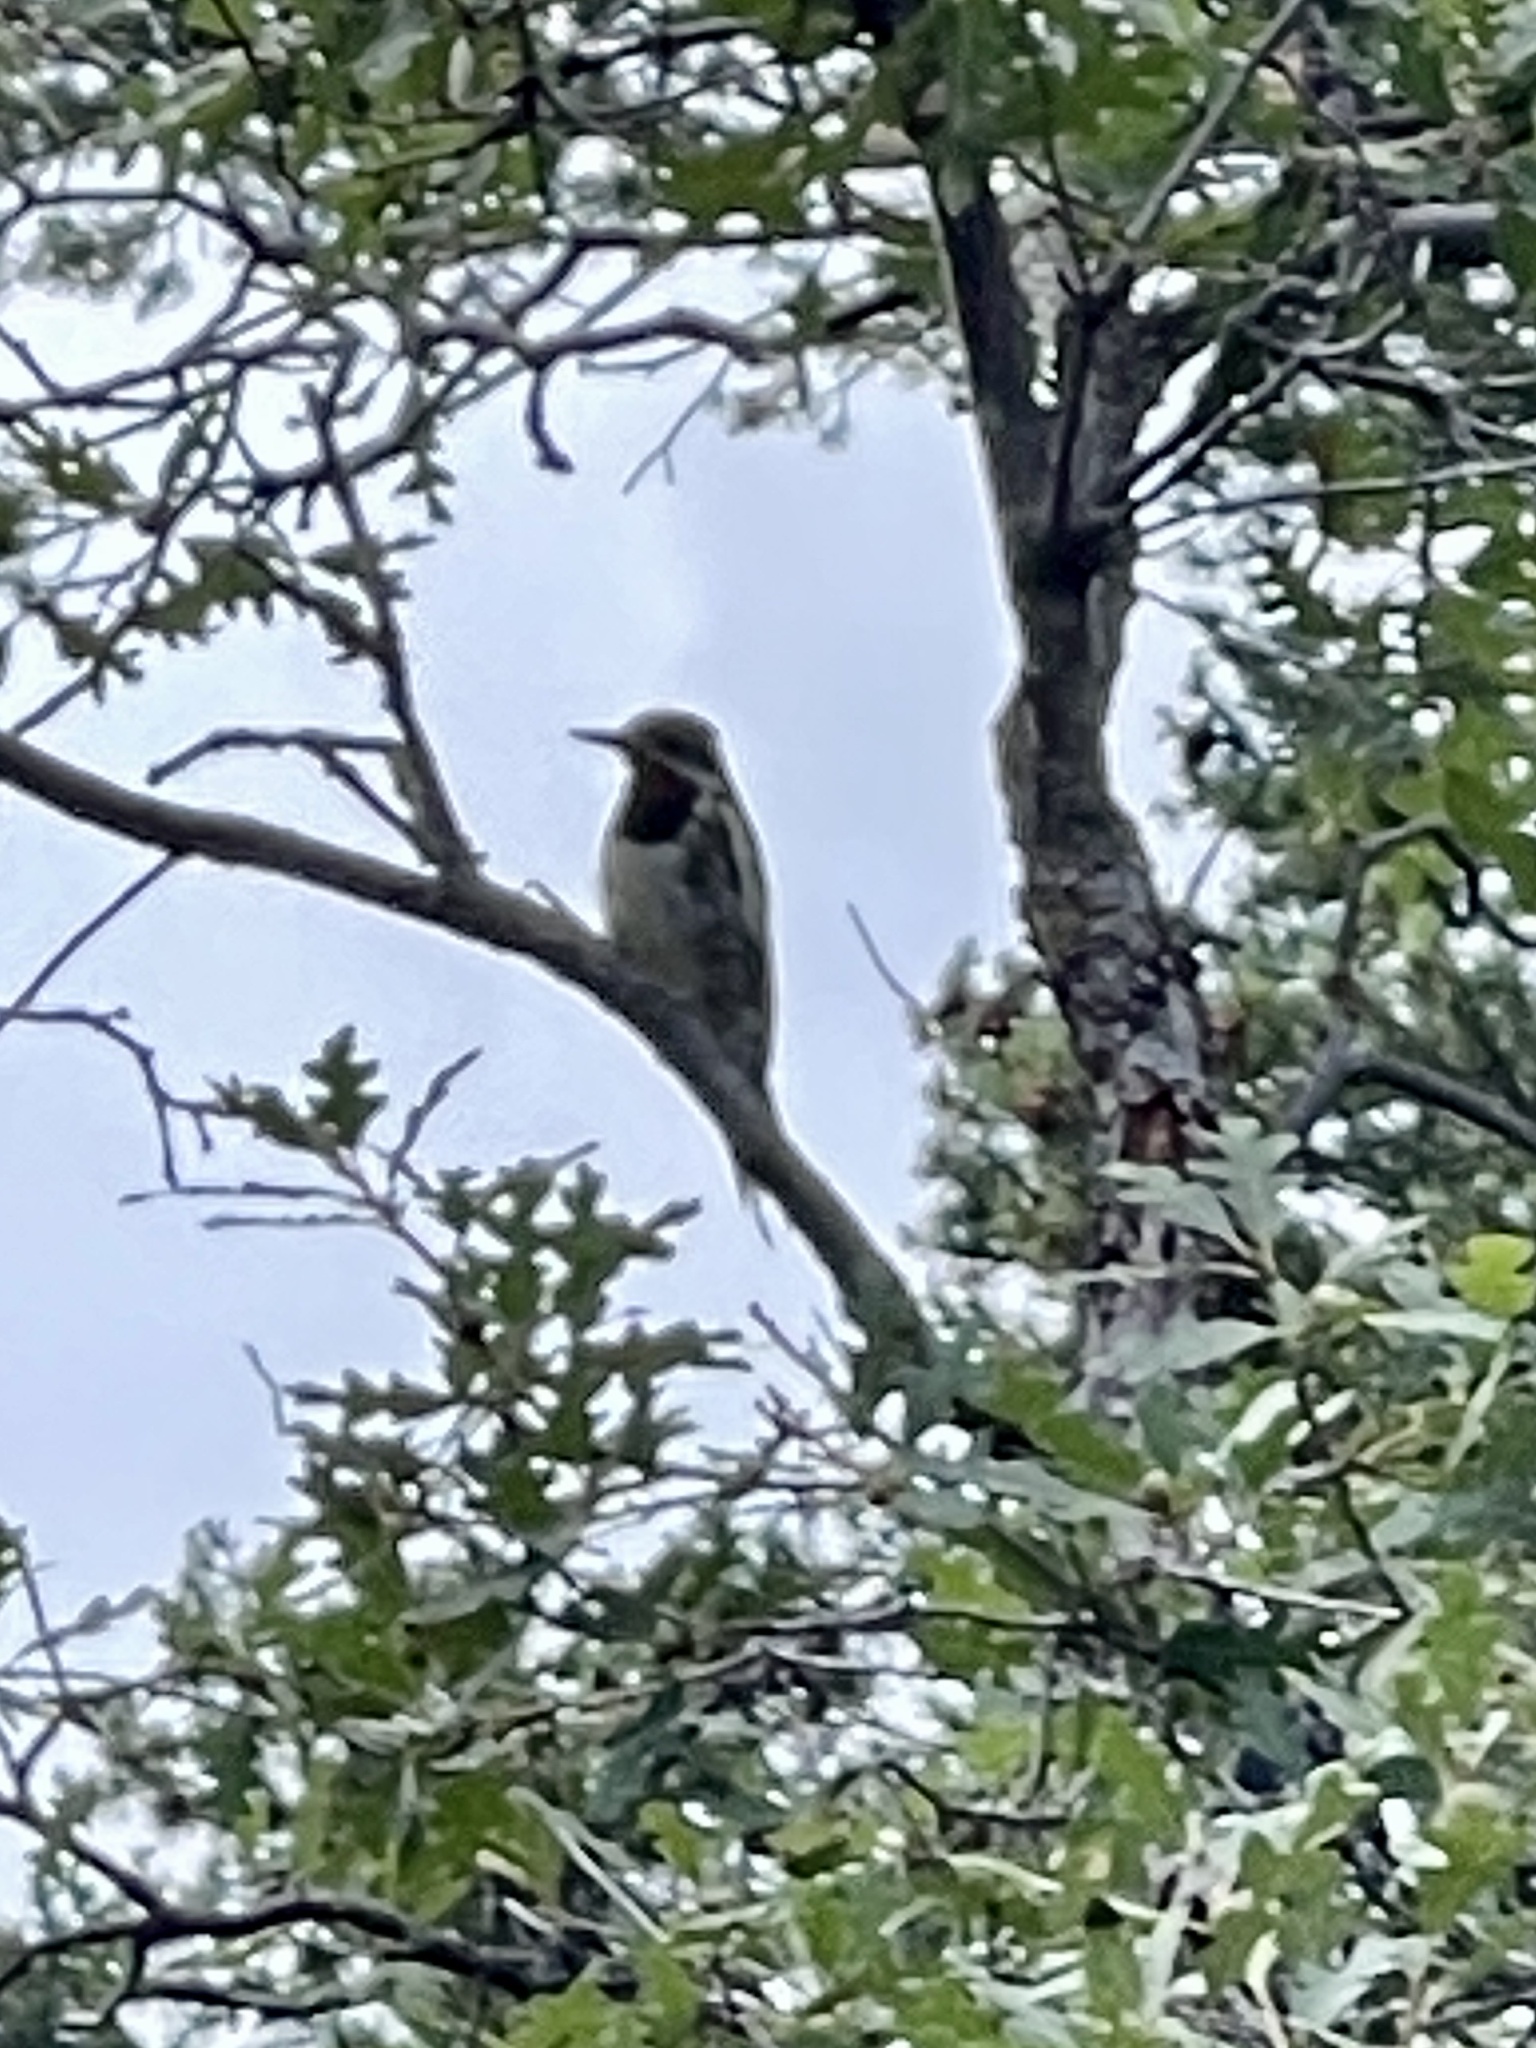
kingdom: Animalia
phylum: Chordata
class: Aves
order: Piciformes
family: Picidae
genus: Sphyrapicus
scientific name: Sphyrapicus nuchalis
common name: Red-naped sapsucker
